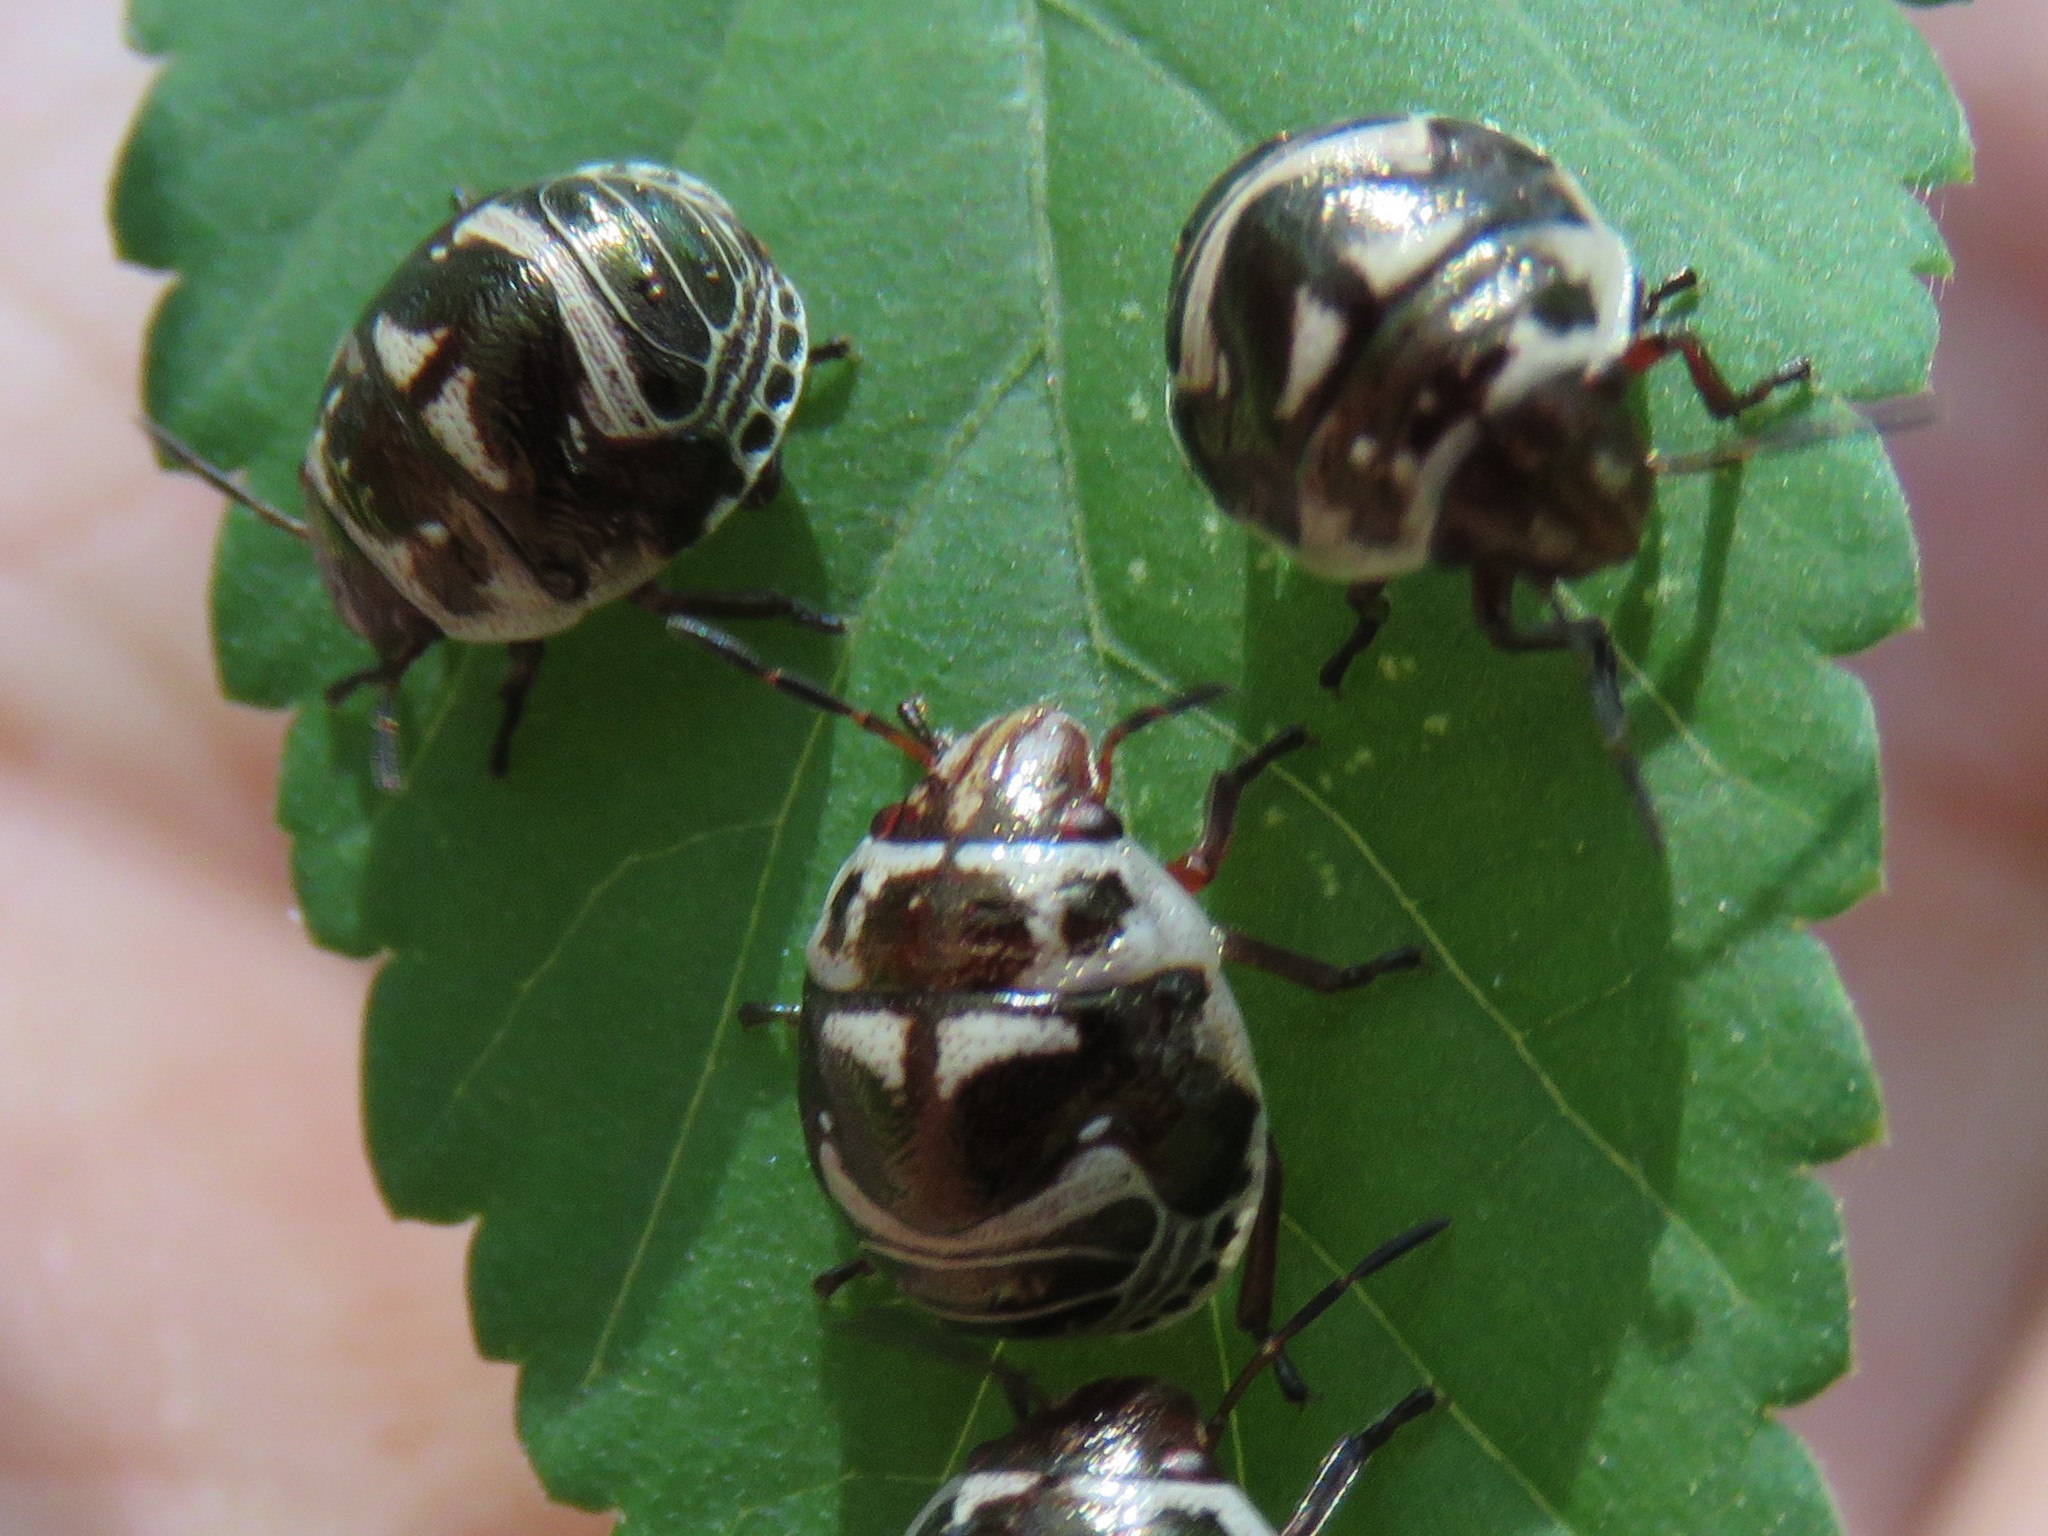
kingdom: Animalia
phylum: Arthropoda
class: Insecta
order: Hemiptera
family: Scutelleridae
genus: Orsilochides
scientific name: Orsilochides
